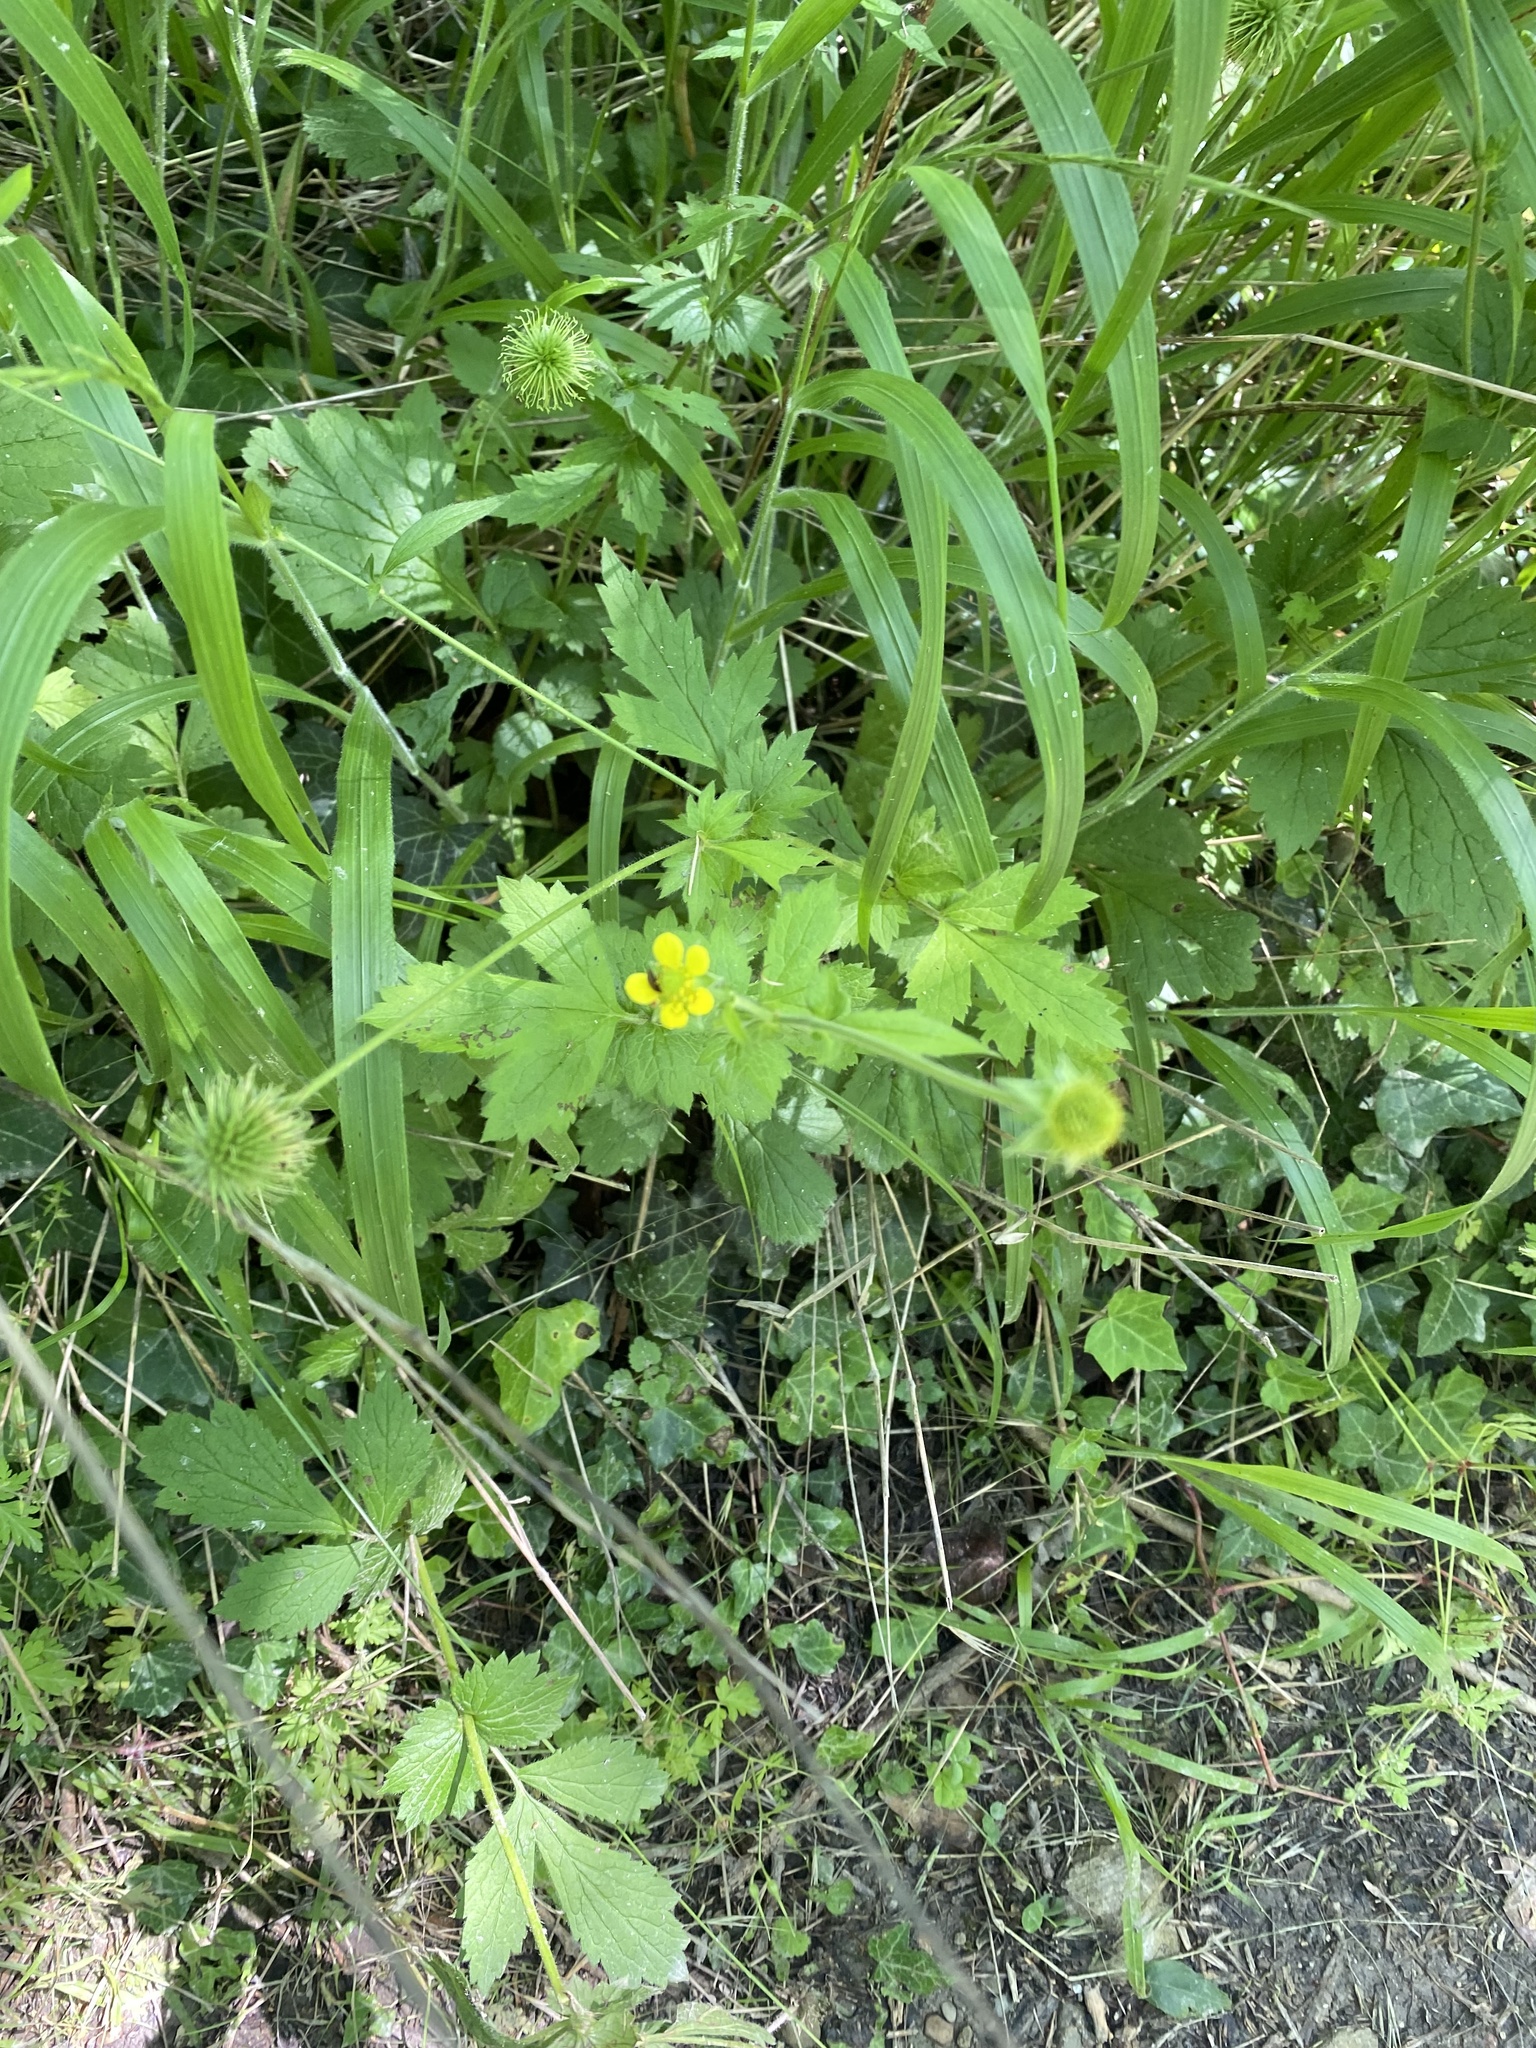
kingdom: Plantae
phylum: Tracheophyta
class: Magnoliopsida
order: Rosales
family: Rosaceae
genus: Geum
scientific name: Geum urbanum
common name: Wood avens
